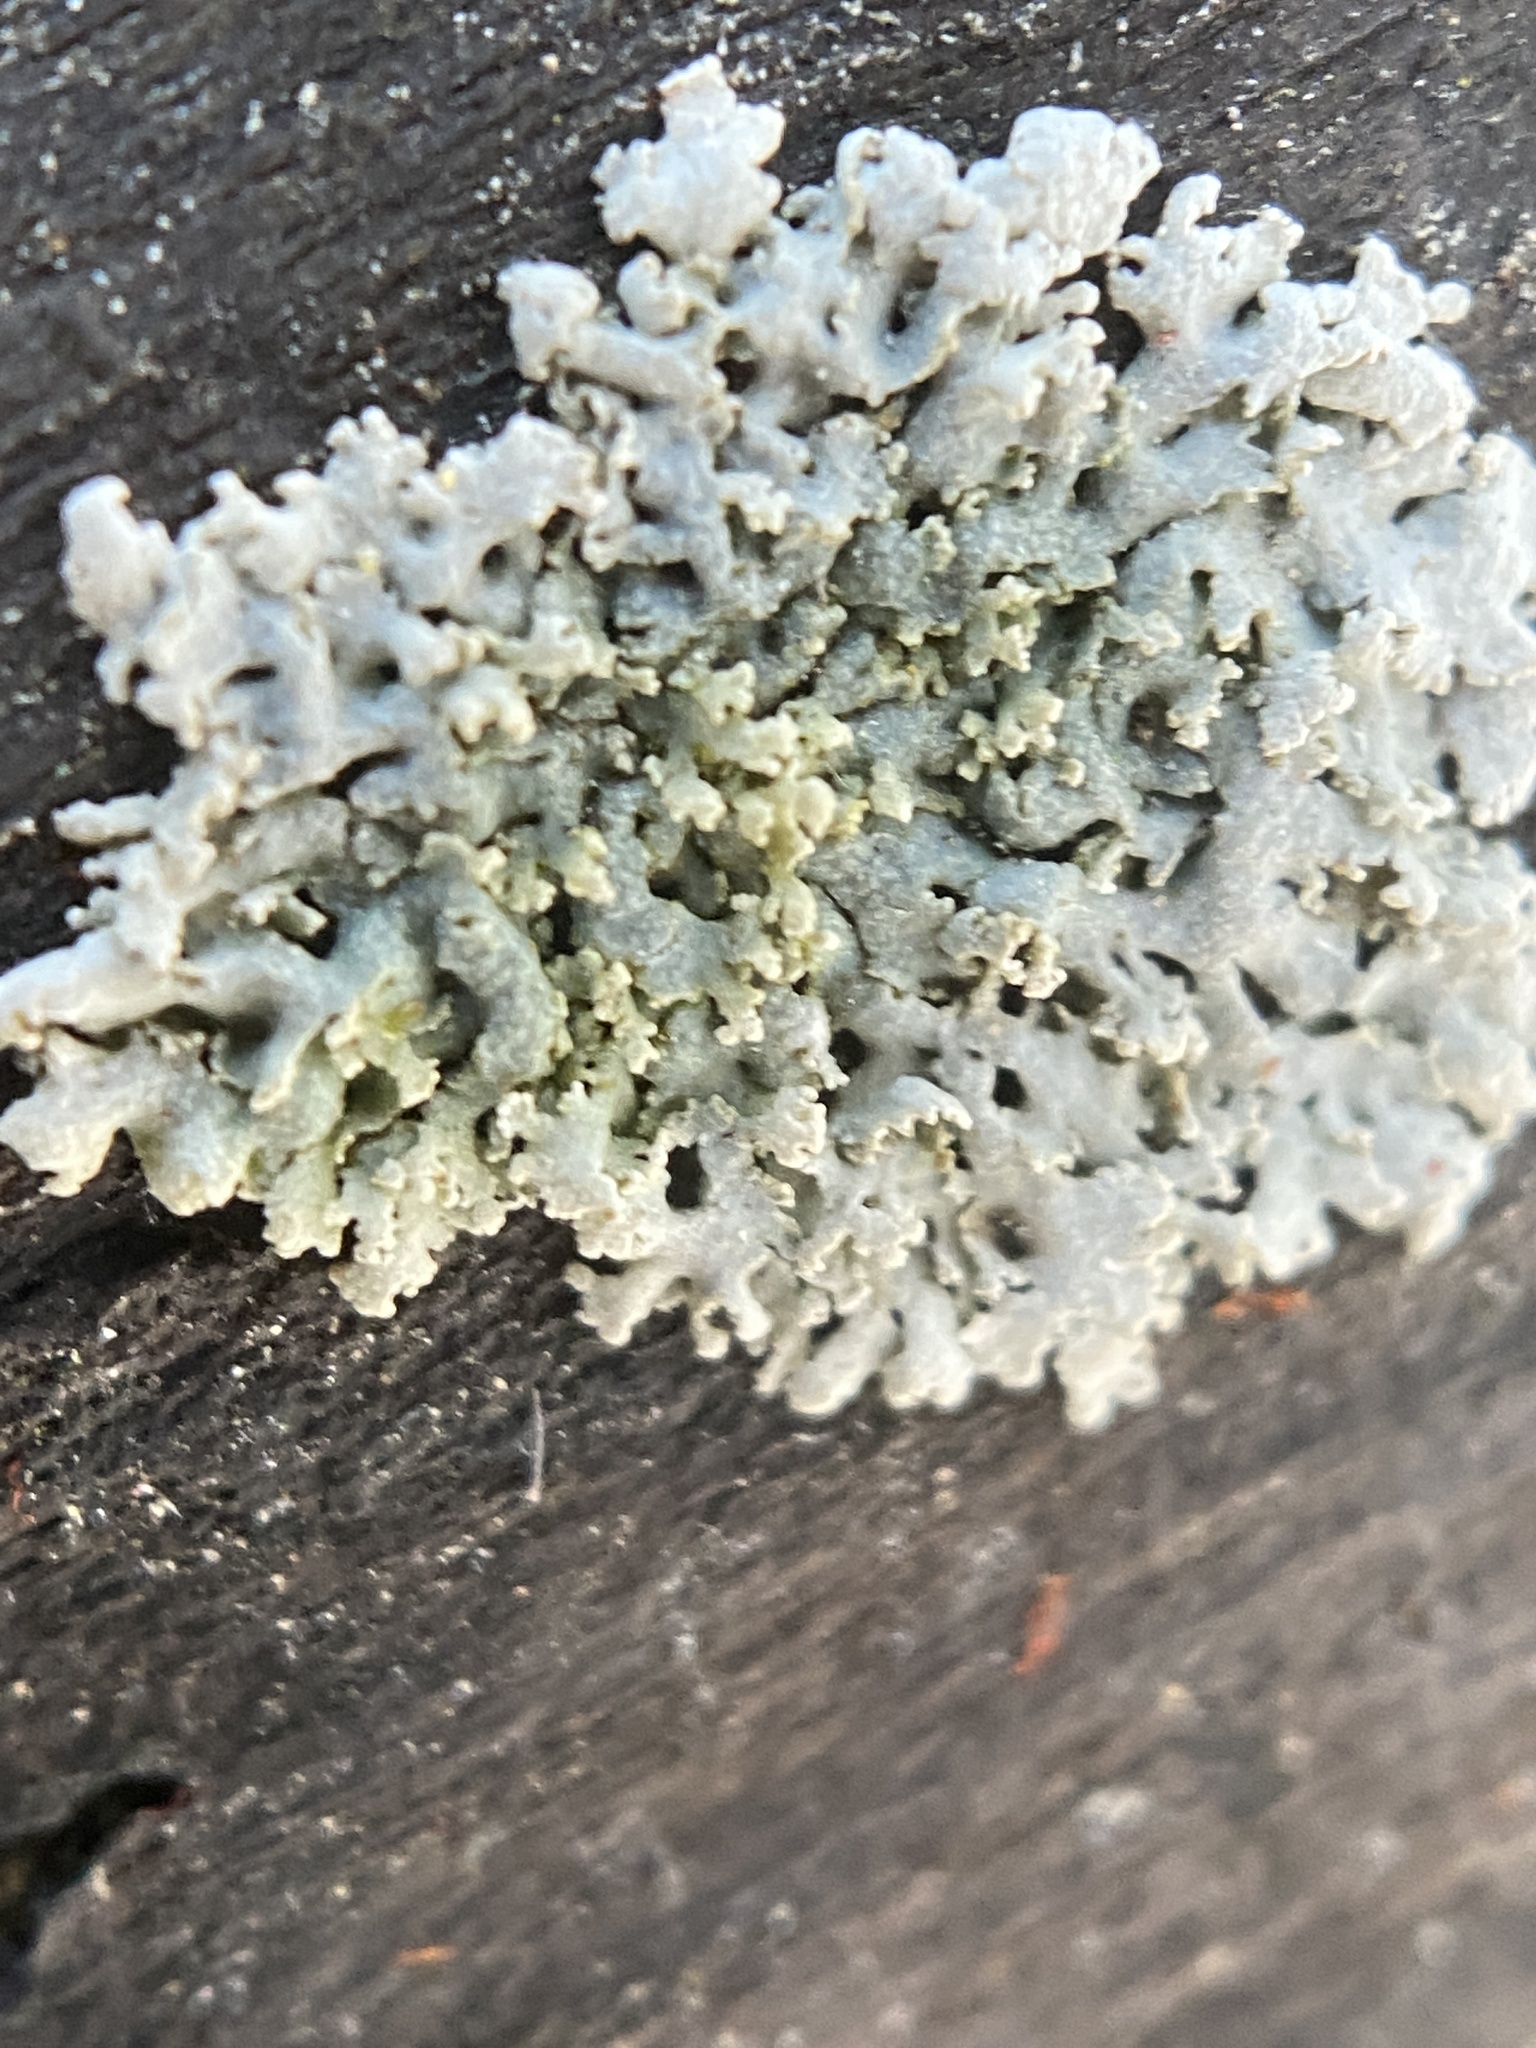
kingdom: Fungi
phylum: Ascomycota
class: Lecanoromycetes
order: Caliciales
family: Physciaceae
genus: Physcia
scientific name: Physcia millegrana
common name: Rosette lichen
